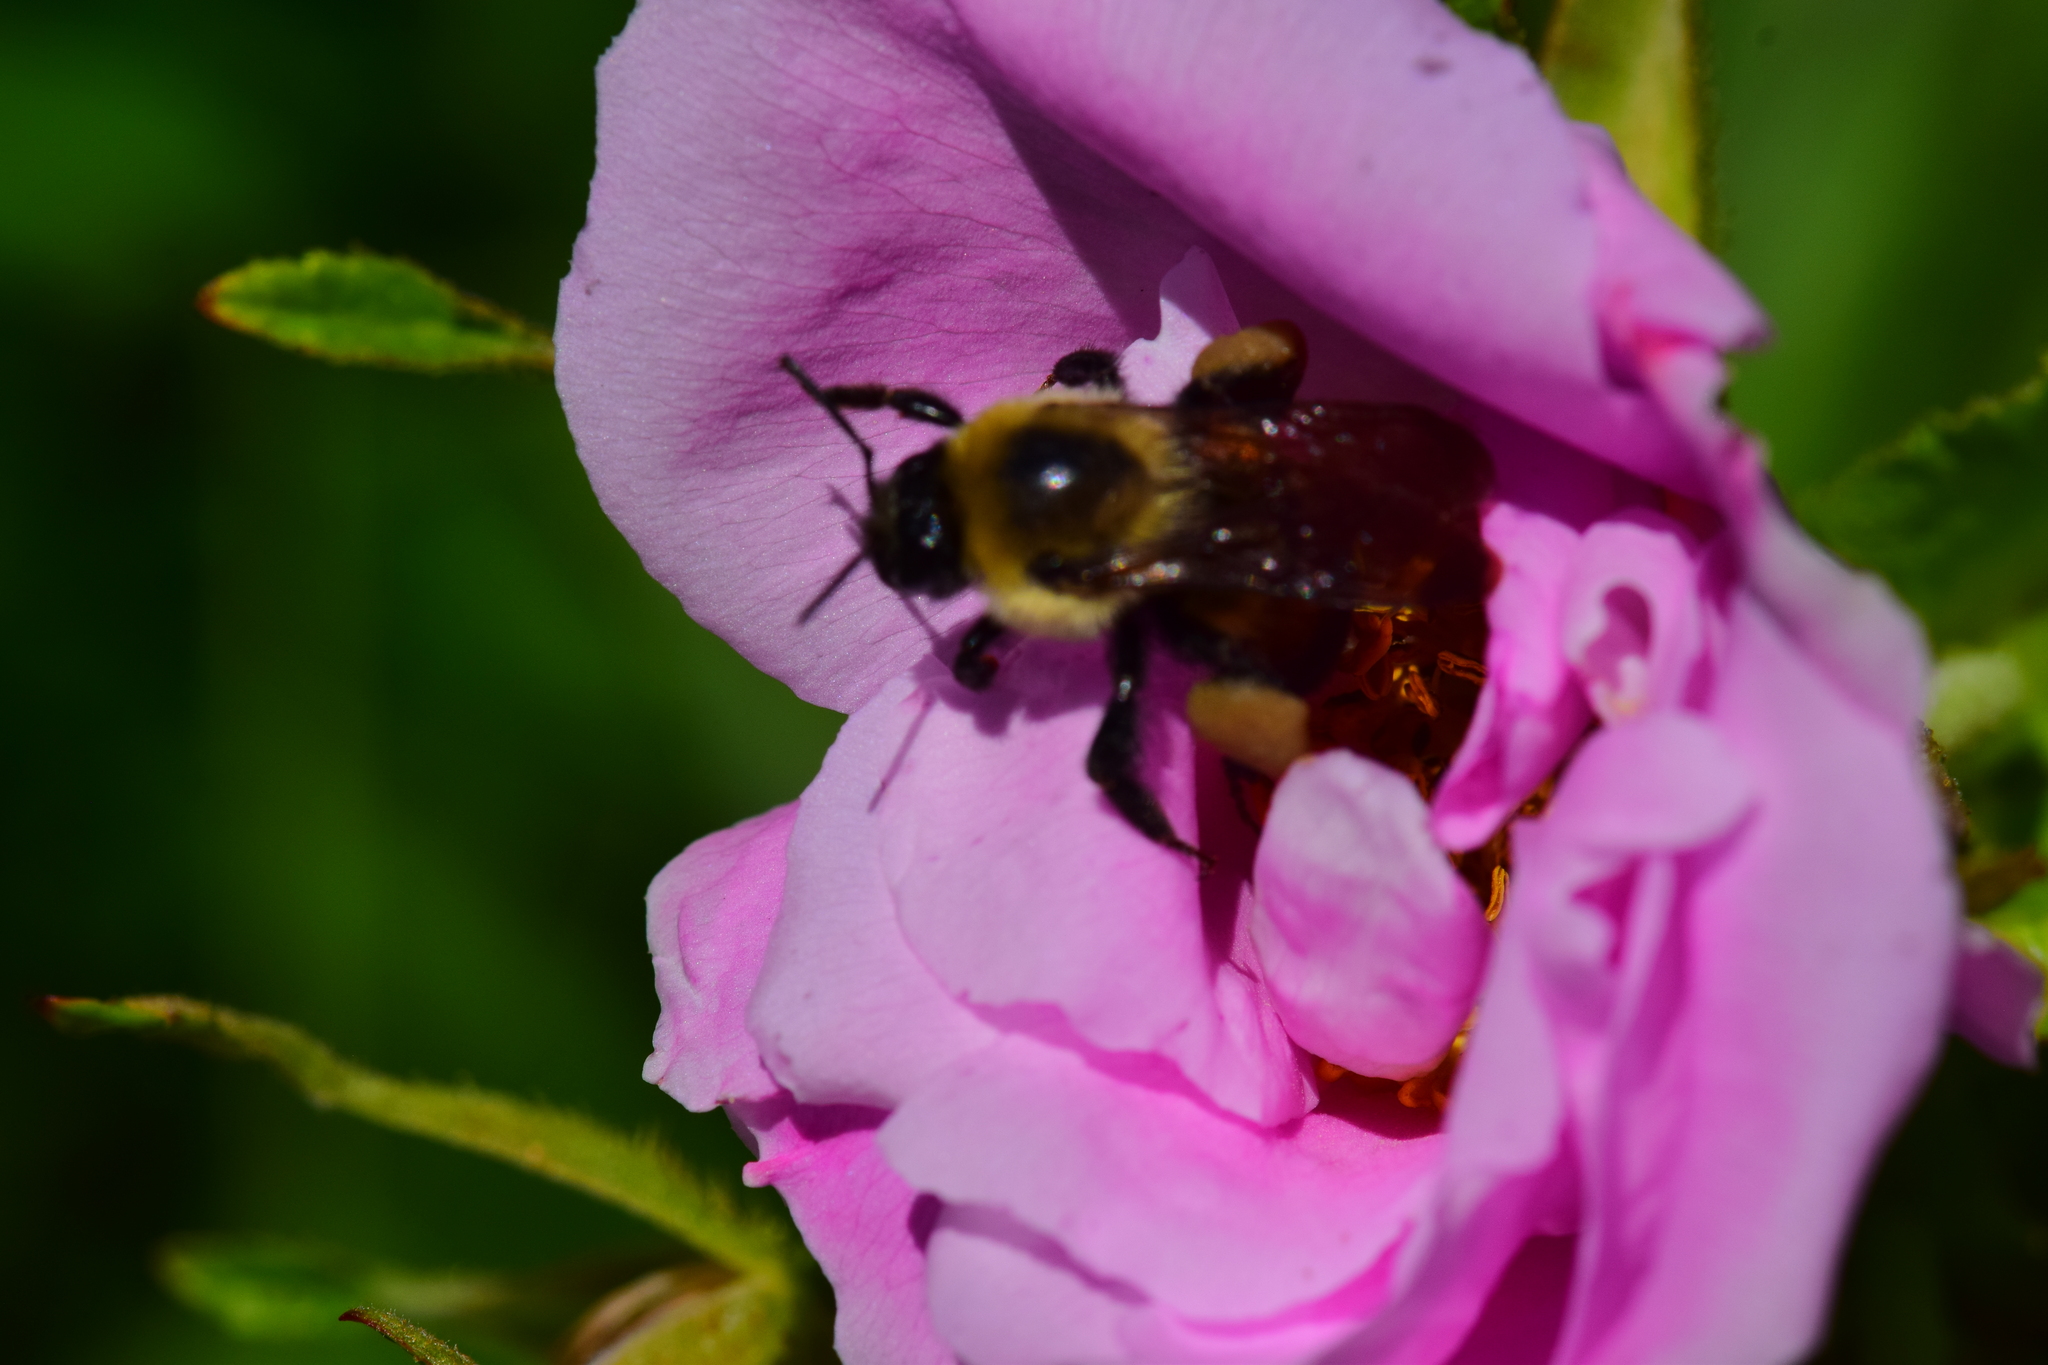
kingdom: Animalia
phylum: Arthropoda
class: Insecta
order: Hymenoptera
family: Apidae
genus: Bombus
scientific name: Bombus griseocollis
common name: Brown-belted bumble bee
